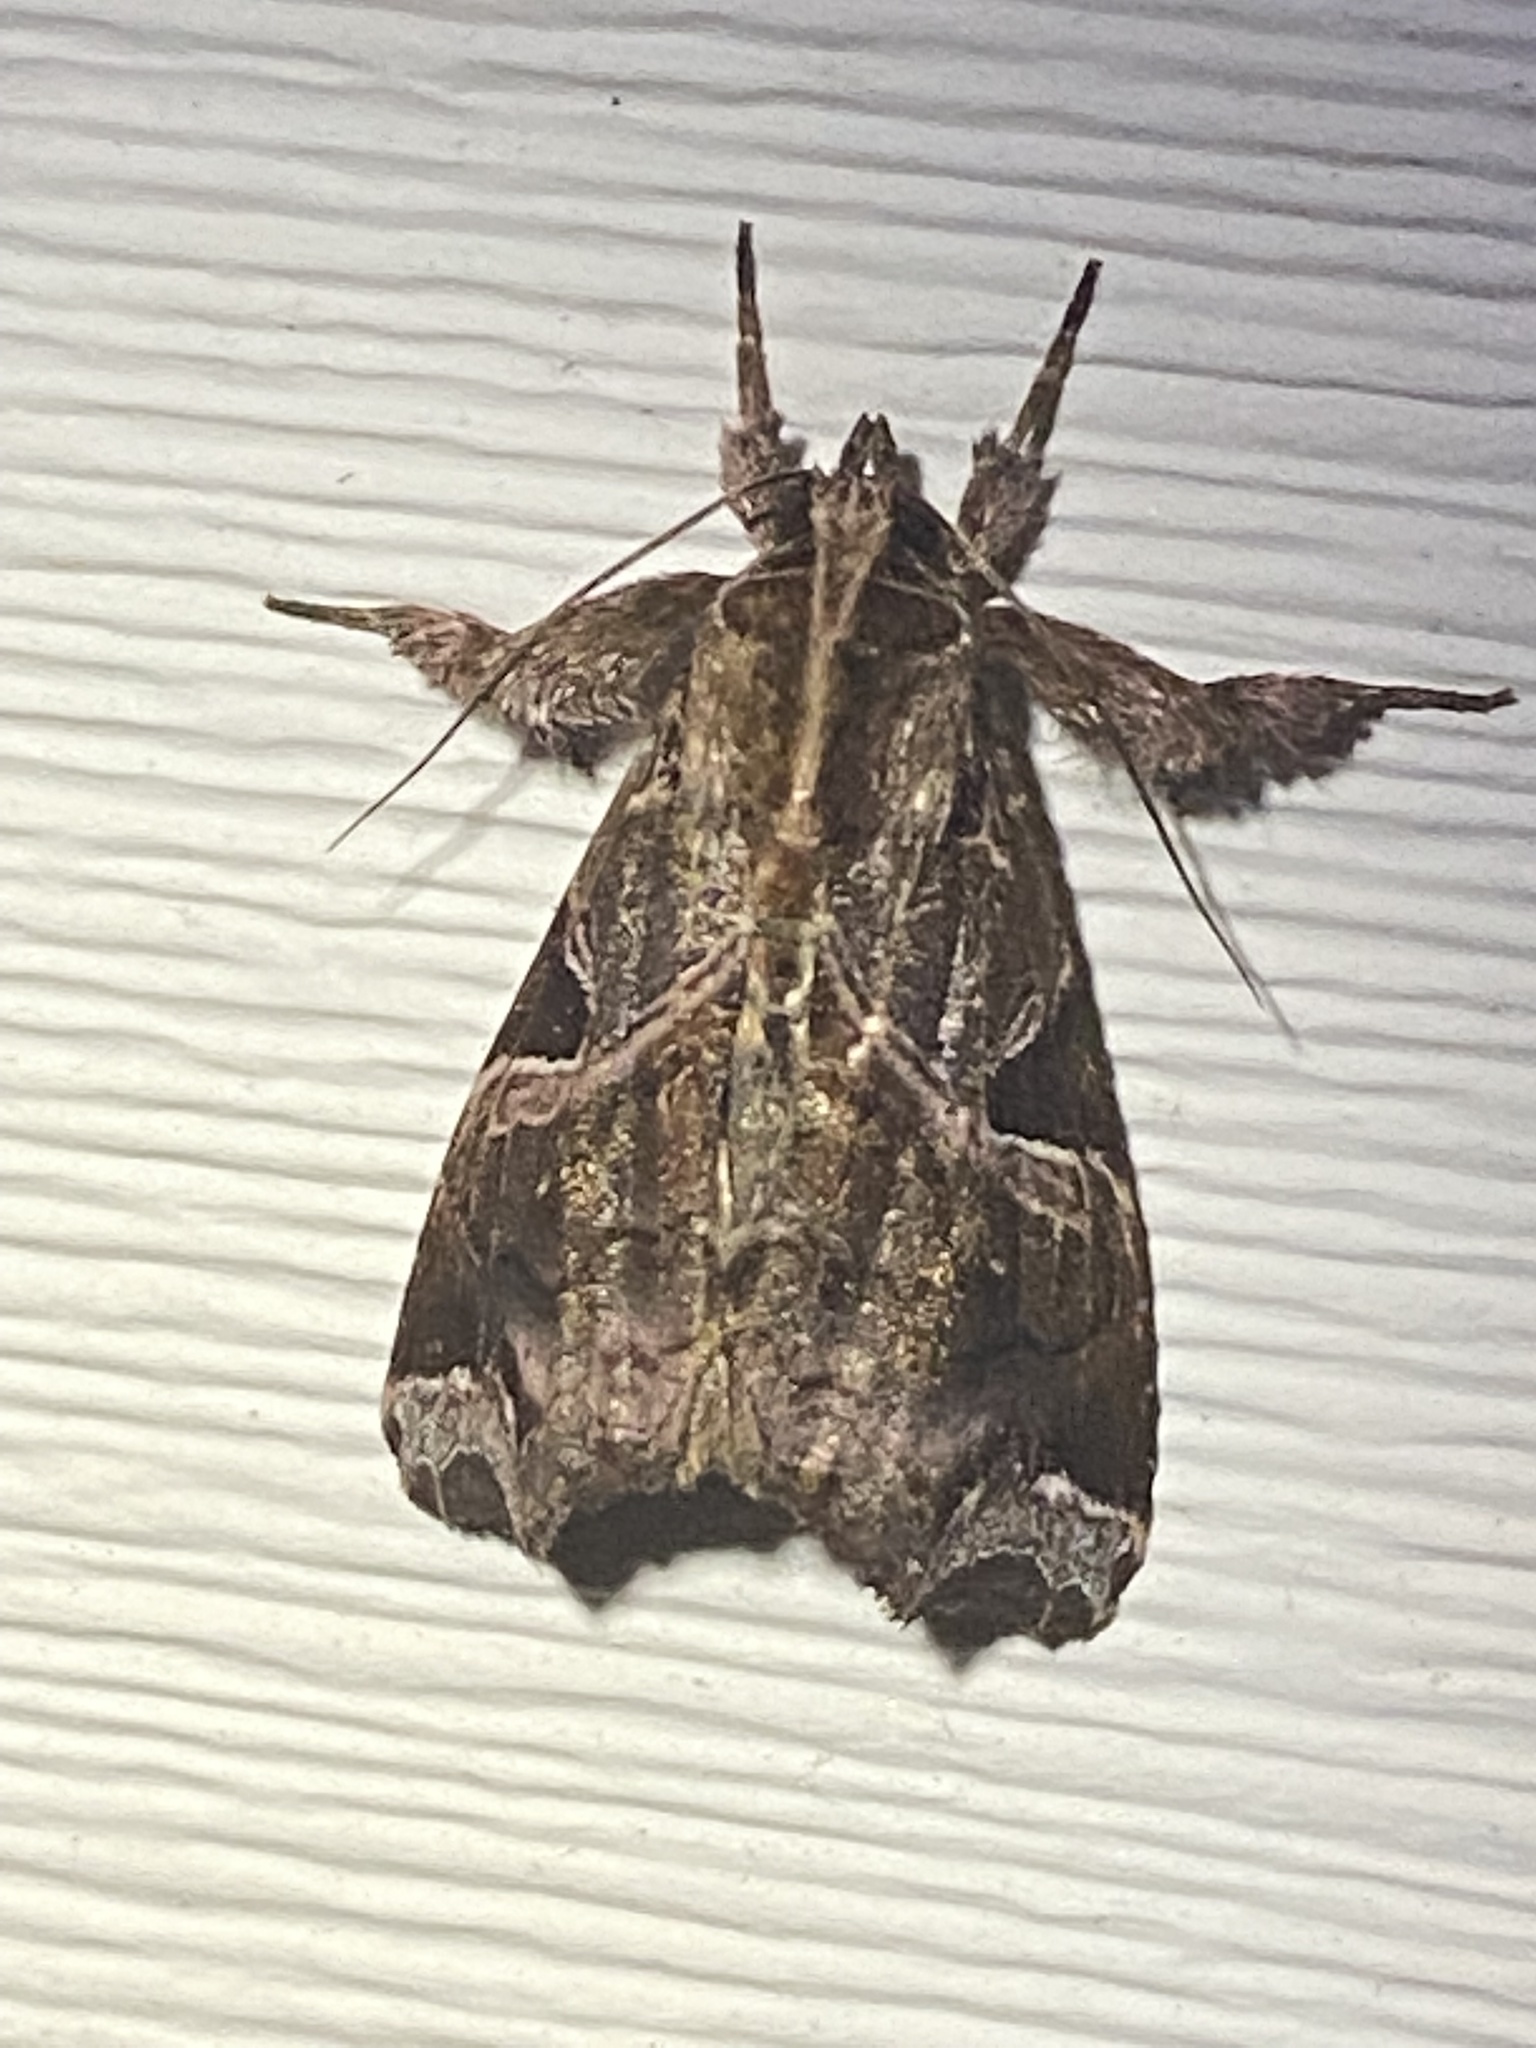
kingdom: Animalia
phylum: Arthropoda
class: Insecta
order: Lepidoptera
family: Noctuidae
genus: Callopistria
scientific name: Callopistria floridensis
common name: Florida fern moth
